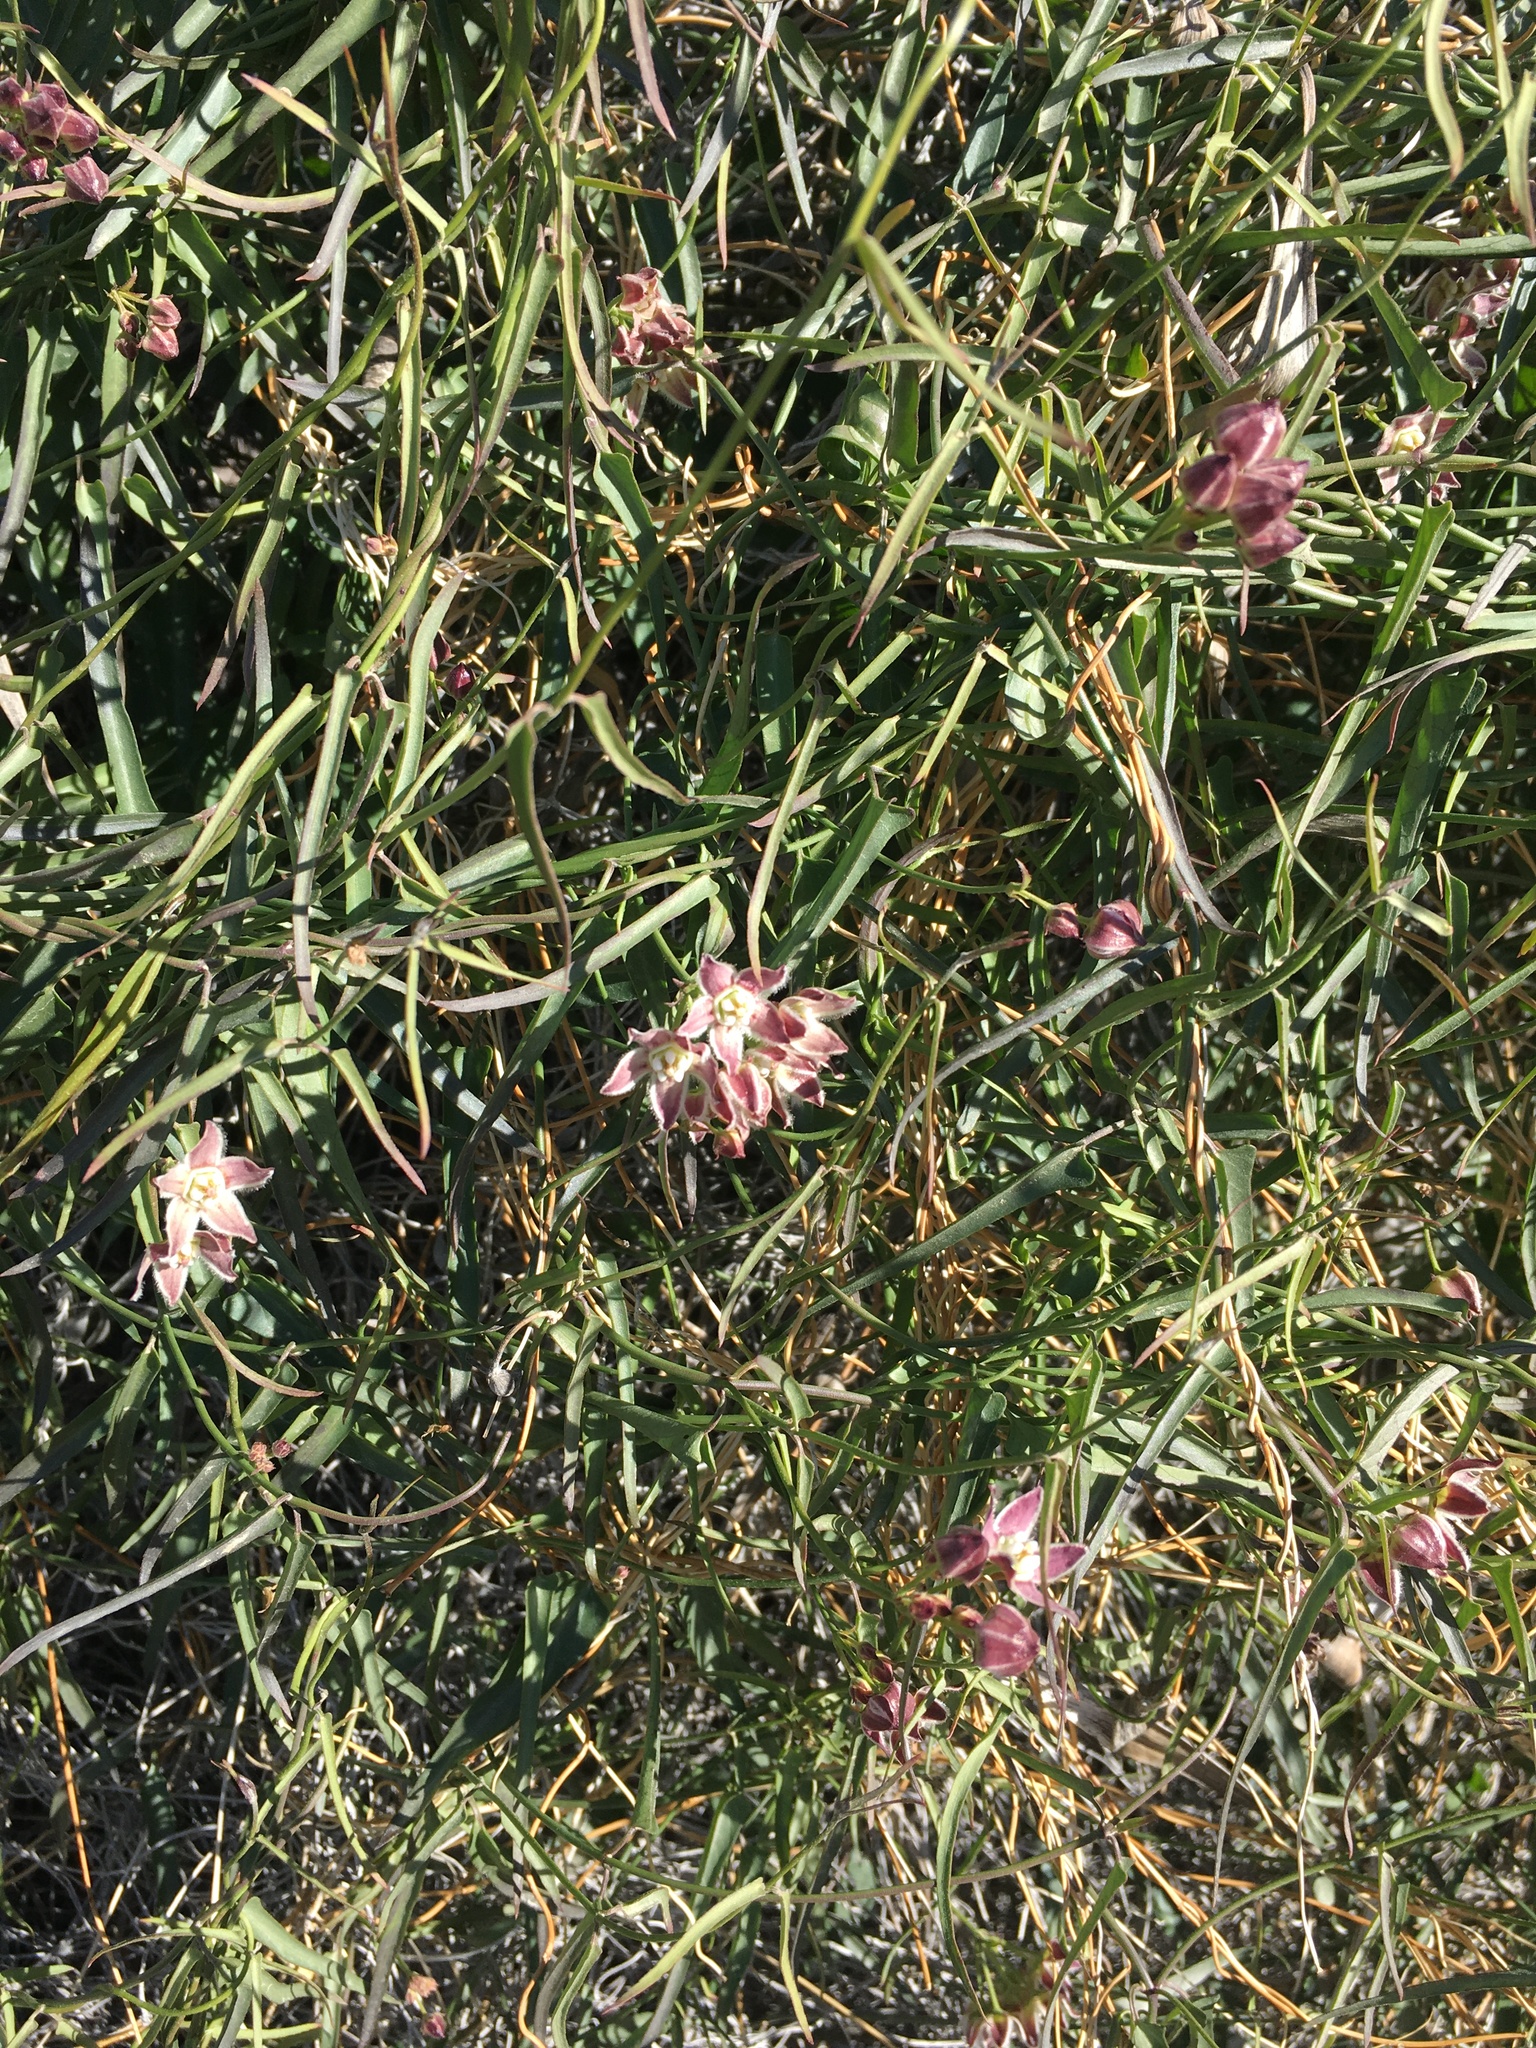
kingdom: Plantae
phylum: Tracheophyta
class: Magnoliopsida
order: Gentianales
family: Apocynaceae
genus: Funastrum
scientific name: Funastrum heterophyllum
